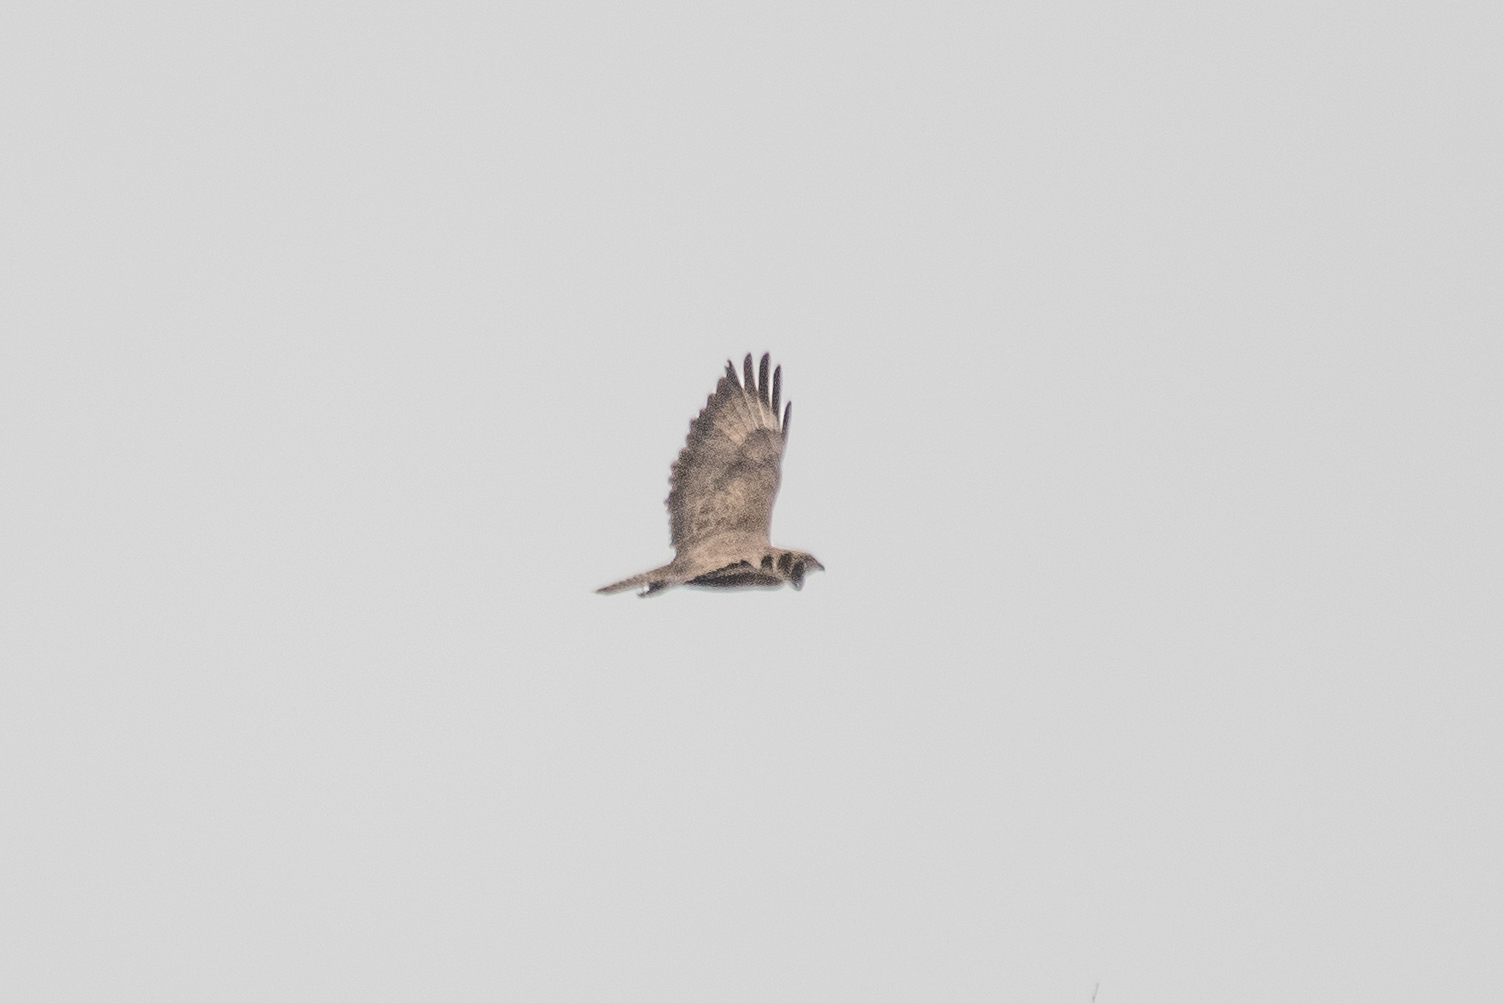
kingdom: Animalia
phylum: Chordata
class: Aves
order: Accipitriformes
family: Accipitridae
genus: Buteo
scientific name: Buteo buteo
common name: Common buzzard
